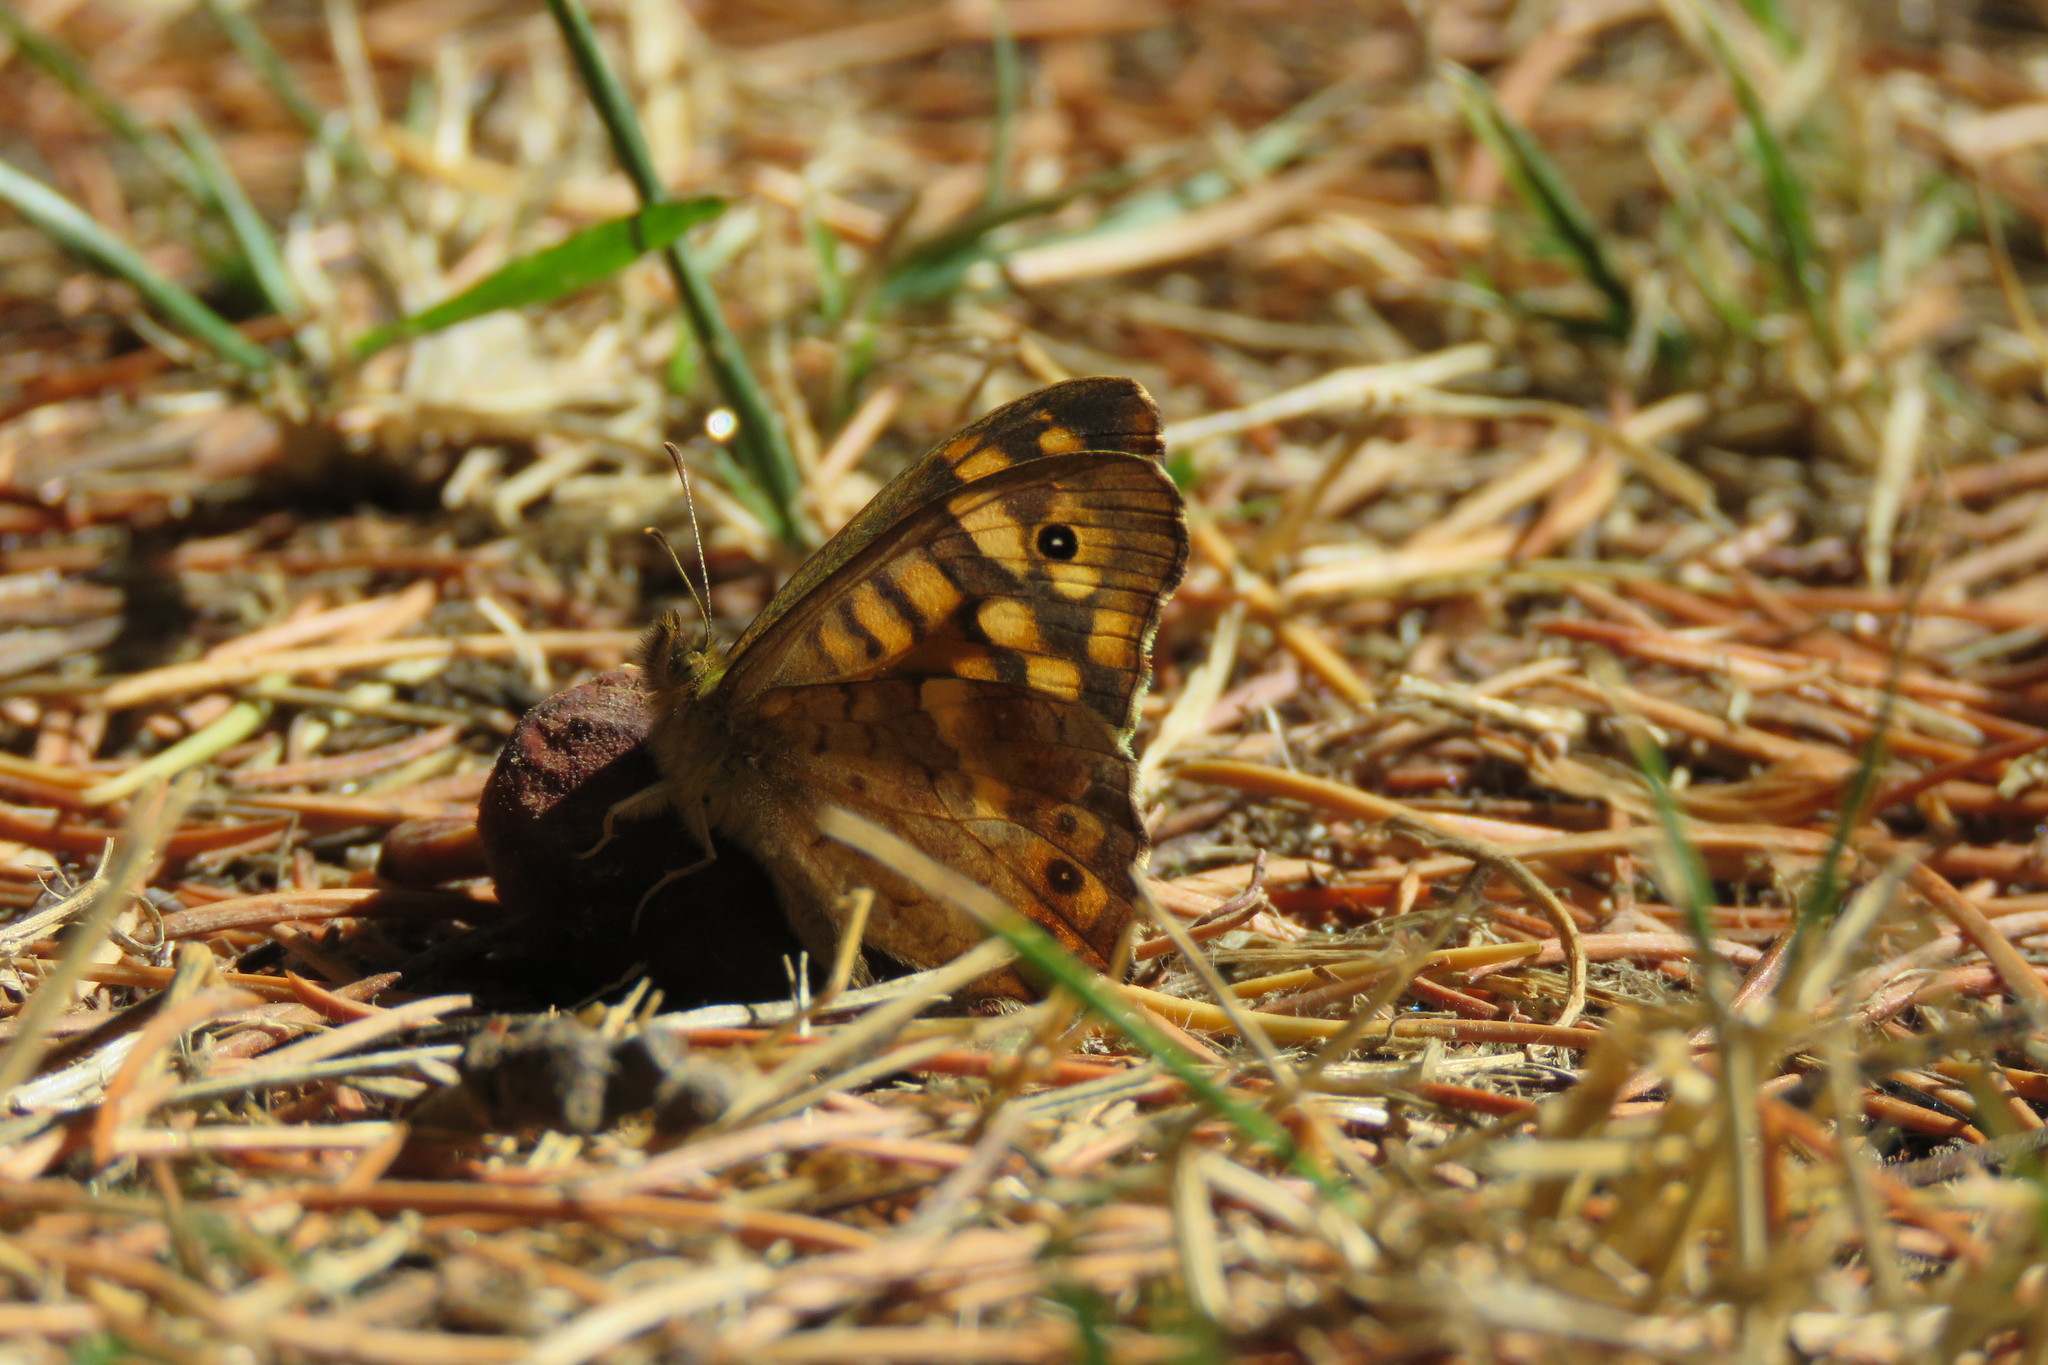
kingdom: Animalia
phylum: Arthropoda
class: Insecta
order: Lepidoptera
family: Nymphalidae
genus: Pararge
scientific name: Pararge aegeria
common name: Speckled wood
